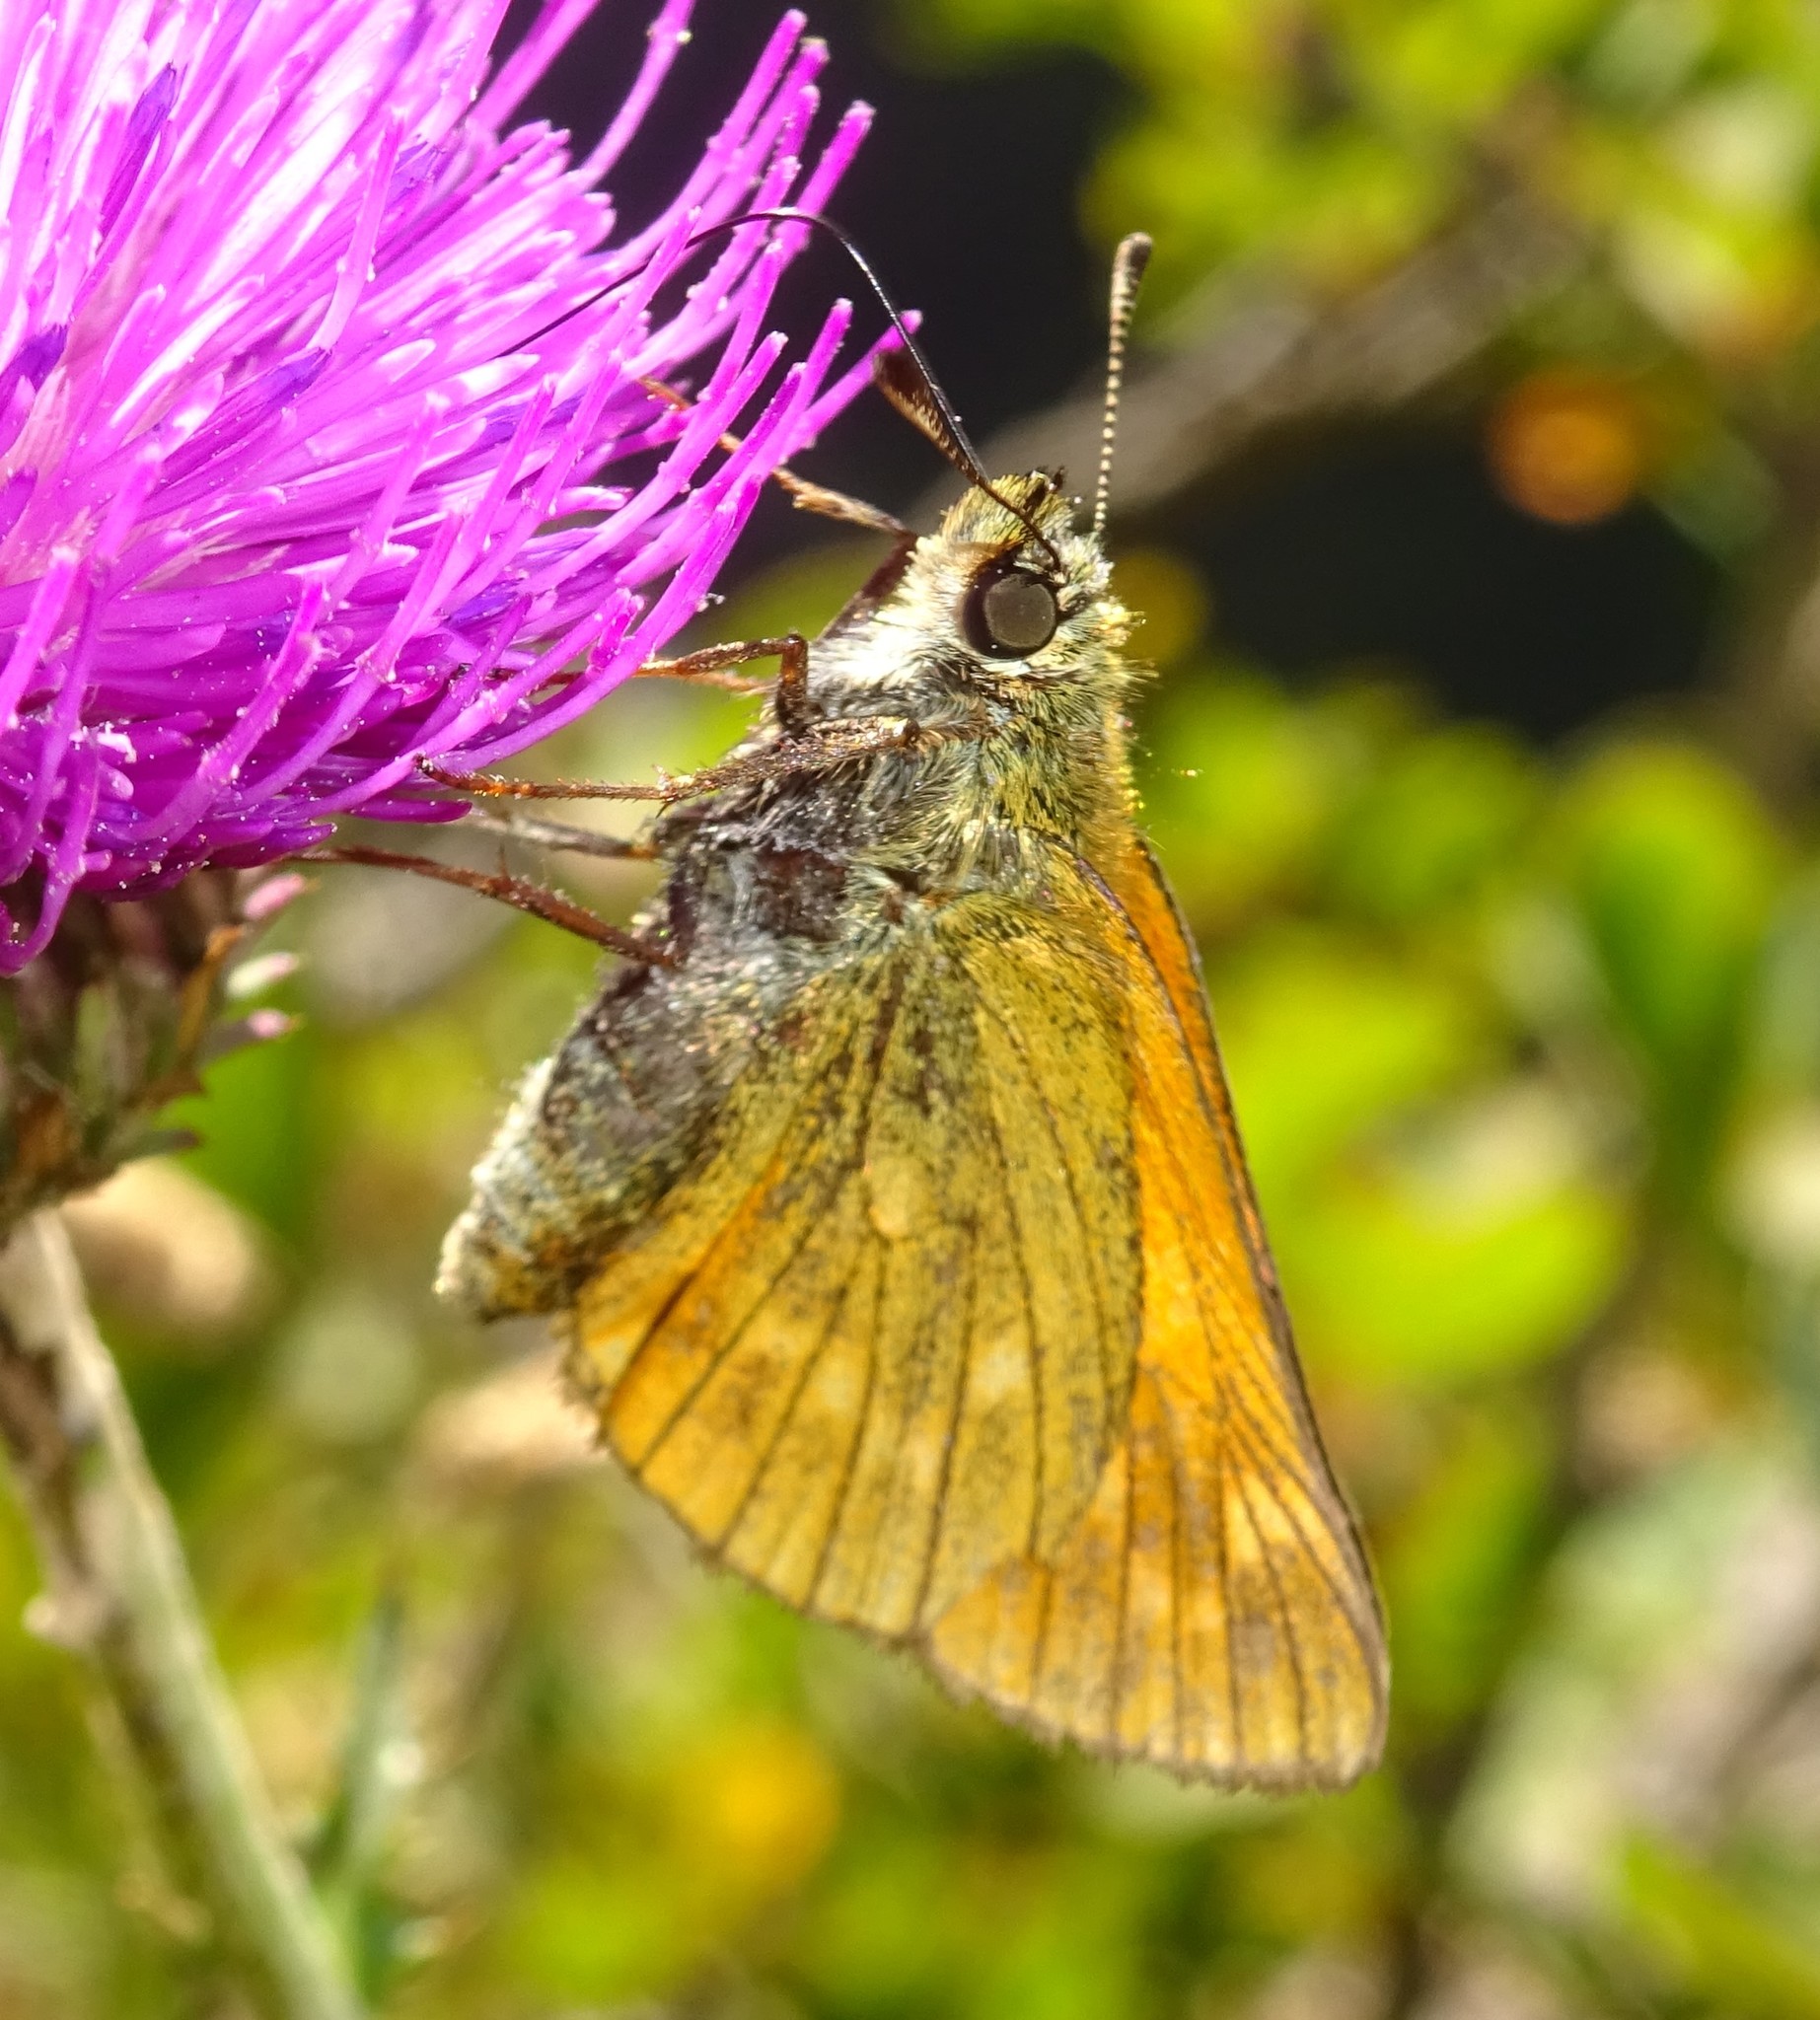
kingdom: Animalia
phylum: Arthropoda
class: Insecta
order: Lepidoptera
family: Hesperiidae
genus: Ochlodes
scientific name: Ochlodes venata
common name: Large skipper
